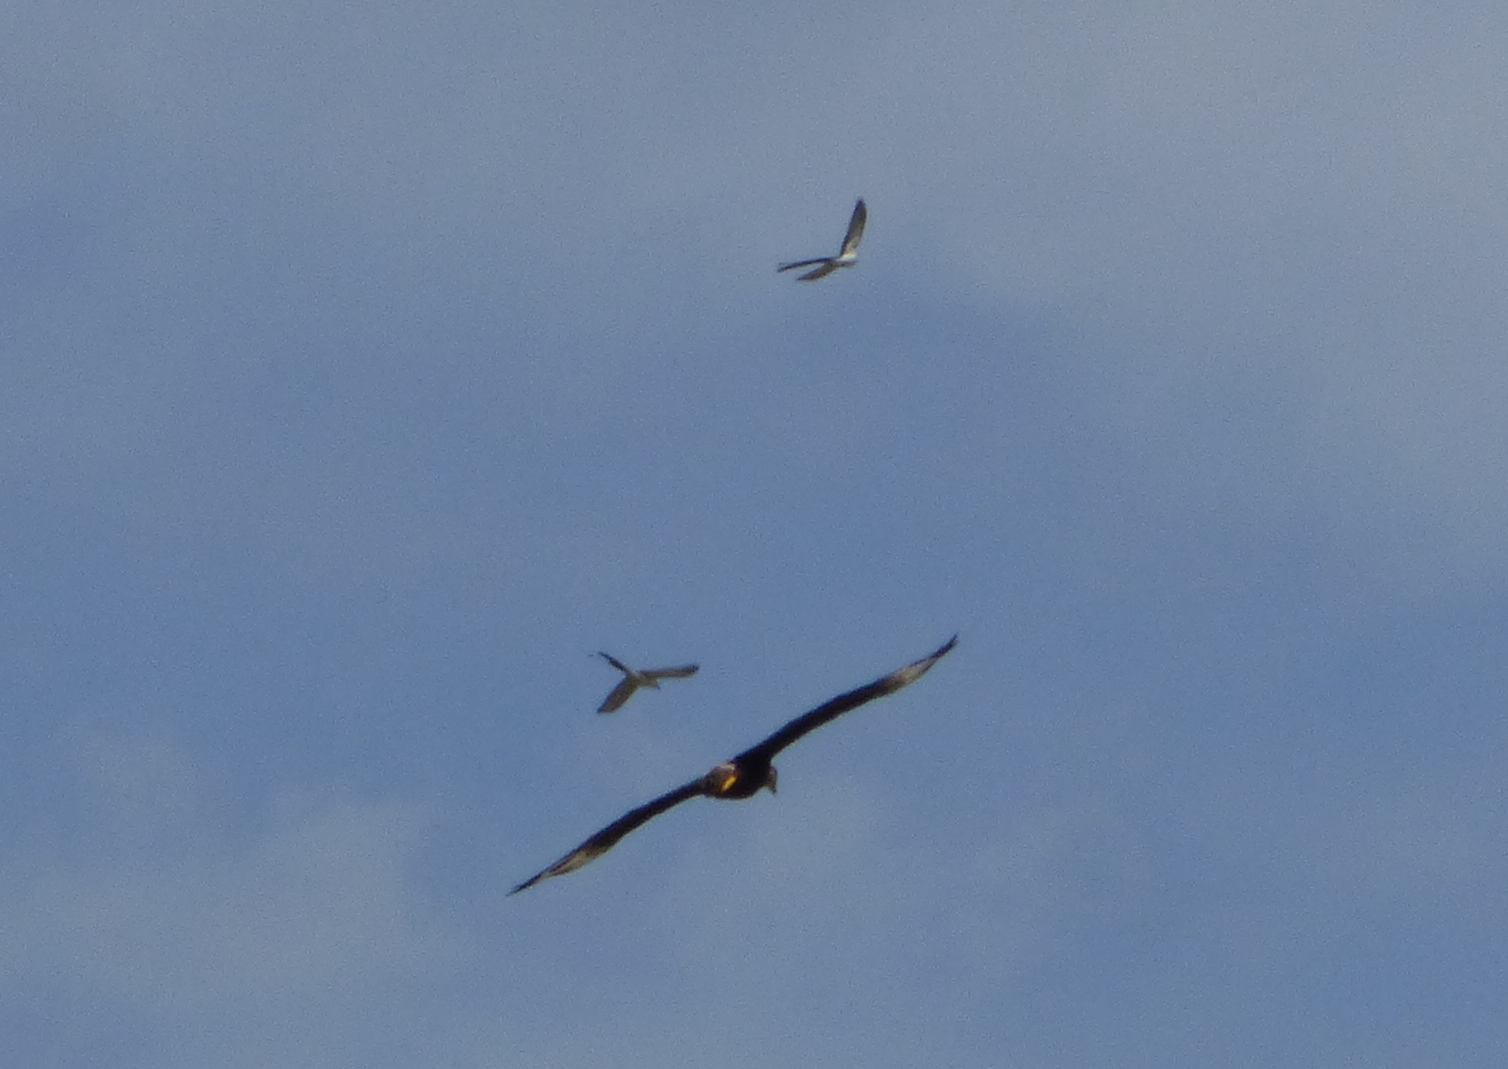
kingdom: Animalia
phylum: Chordata
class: Aves
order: Passeriformes
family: Tyrannidae
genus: Tyrannus
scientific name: Tyrannus savana
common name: Fork-tailed flycatcher
